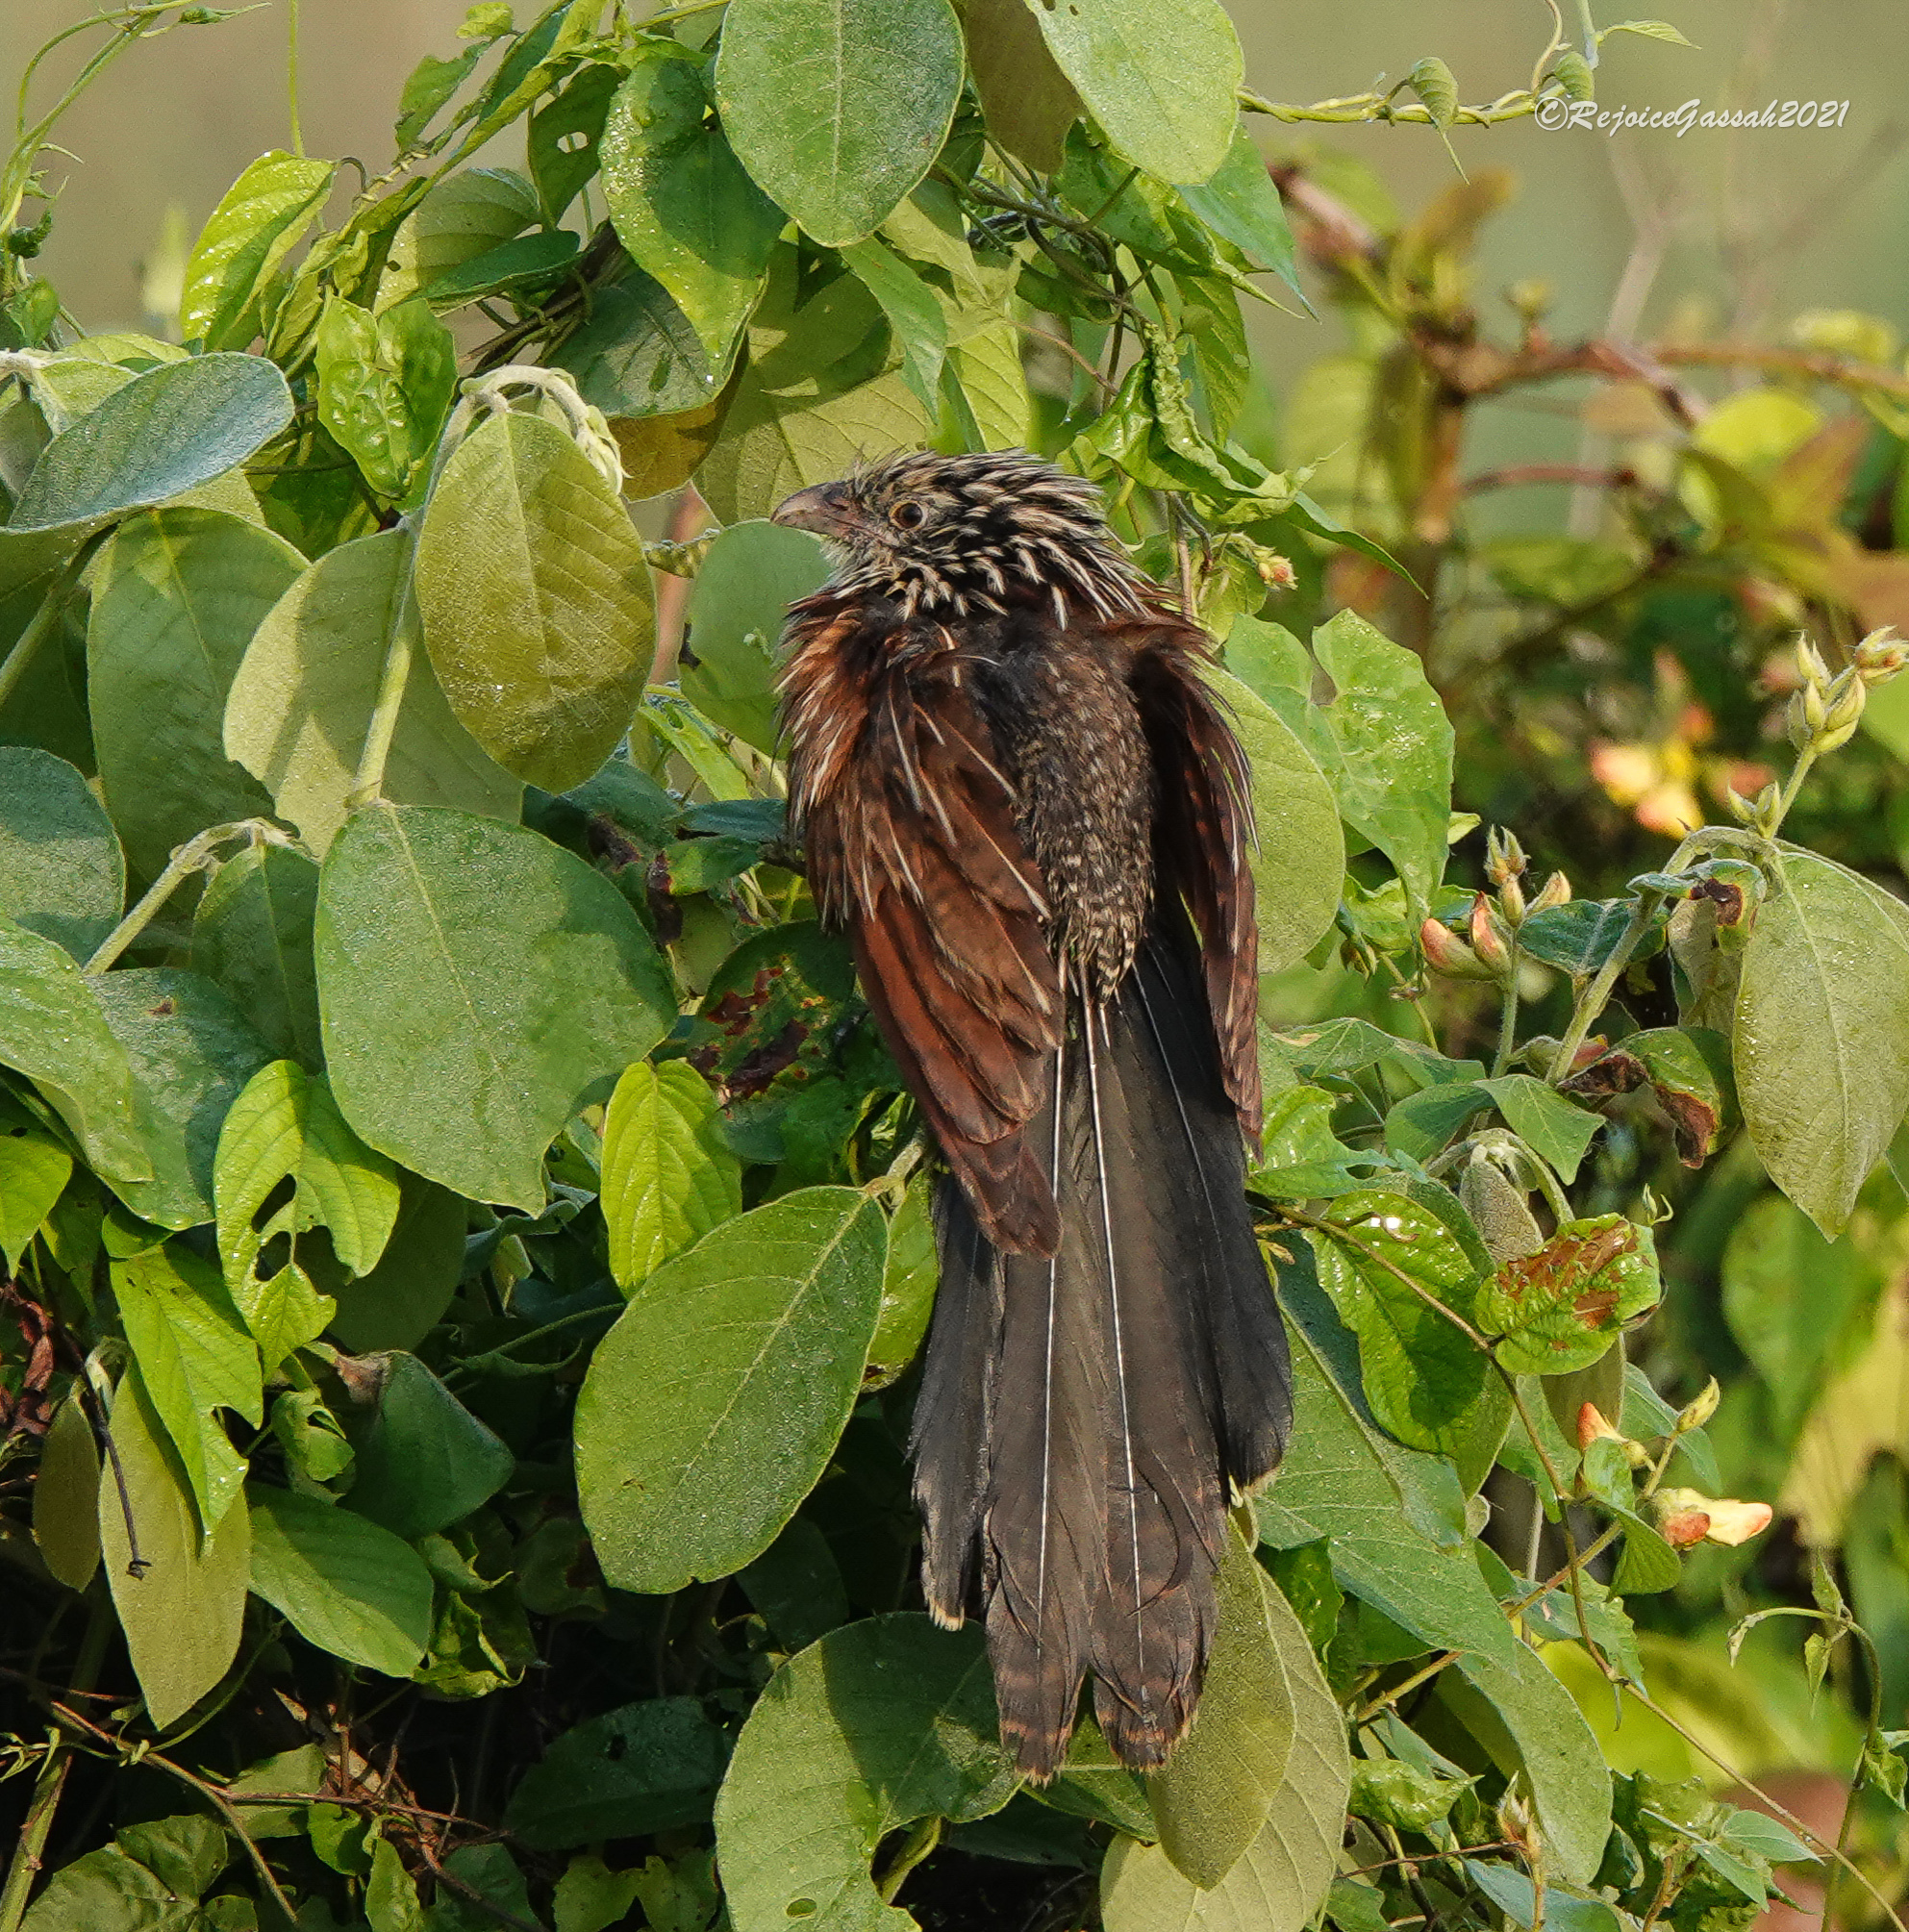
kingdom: Animalia
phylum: Chordata
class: Aves
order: Cuculiformes
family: Cuculidae
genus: Centropus
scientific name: Centropus bengalensis
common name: Lesser coucal
